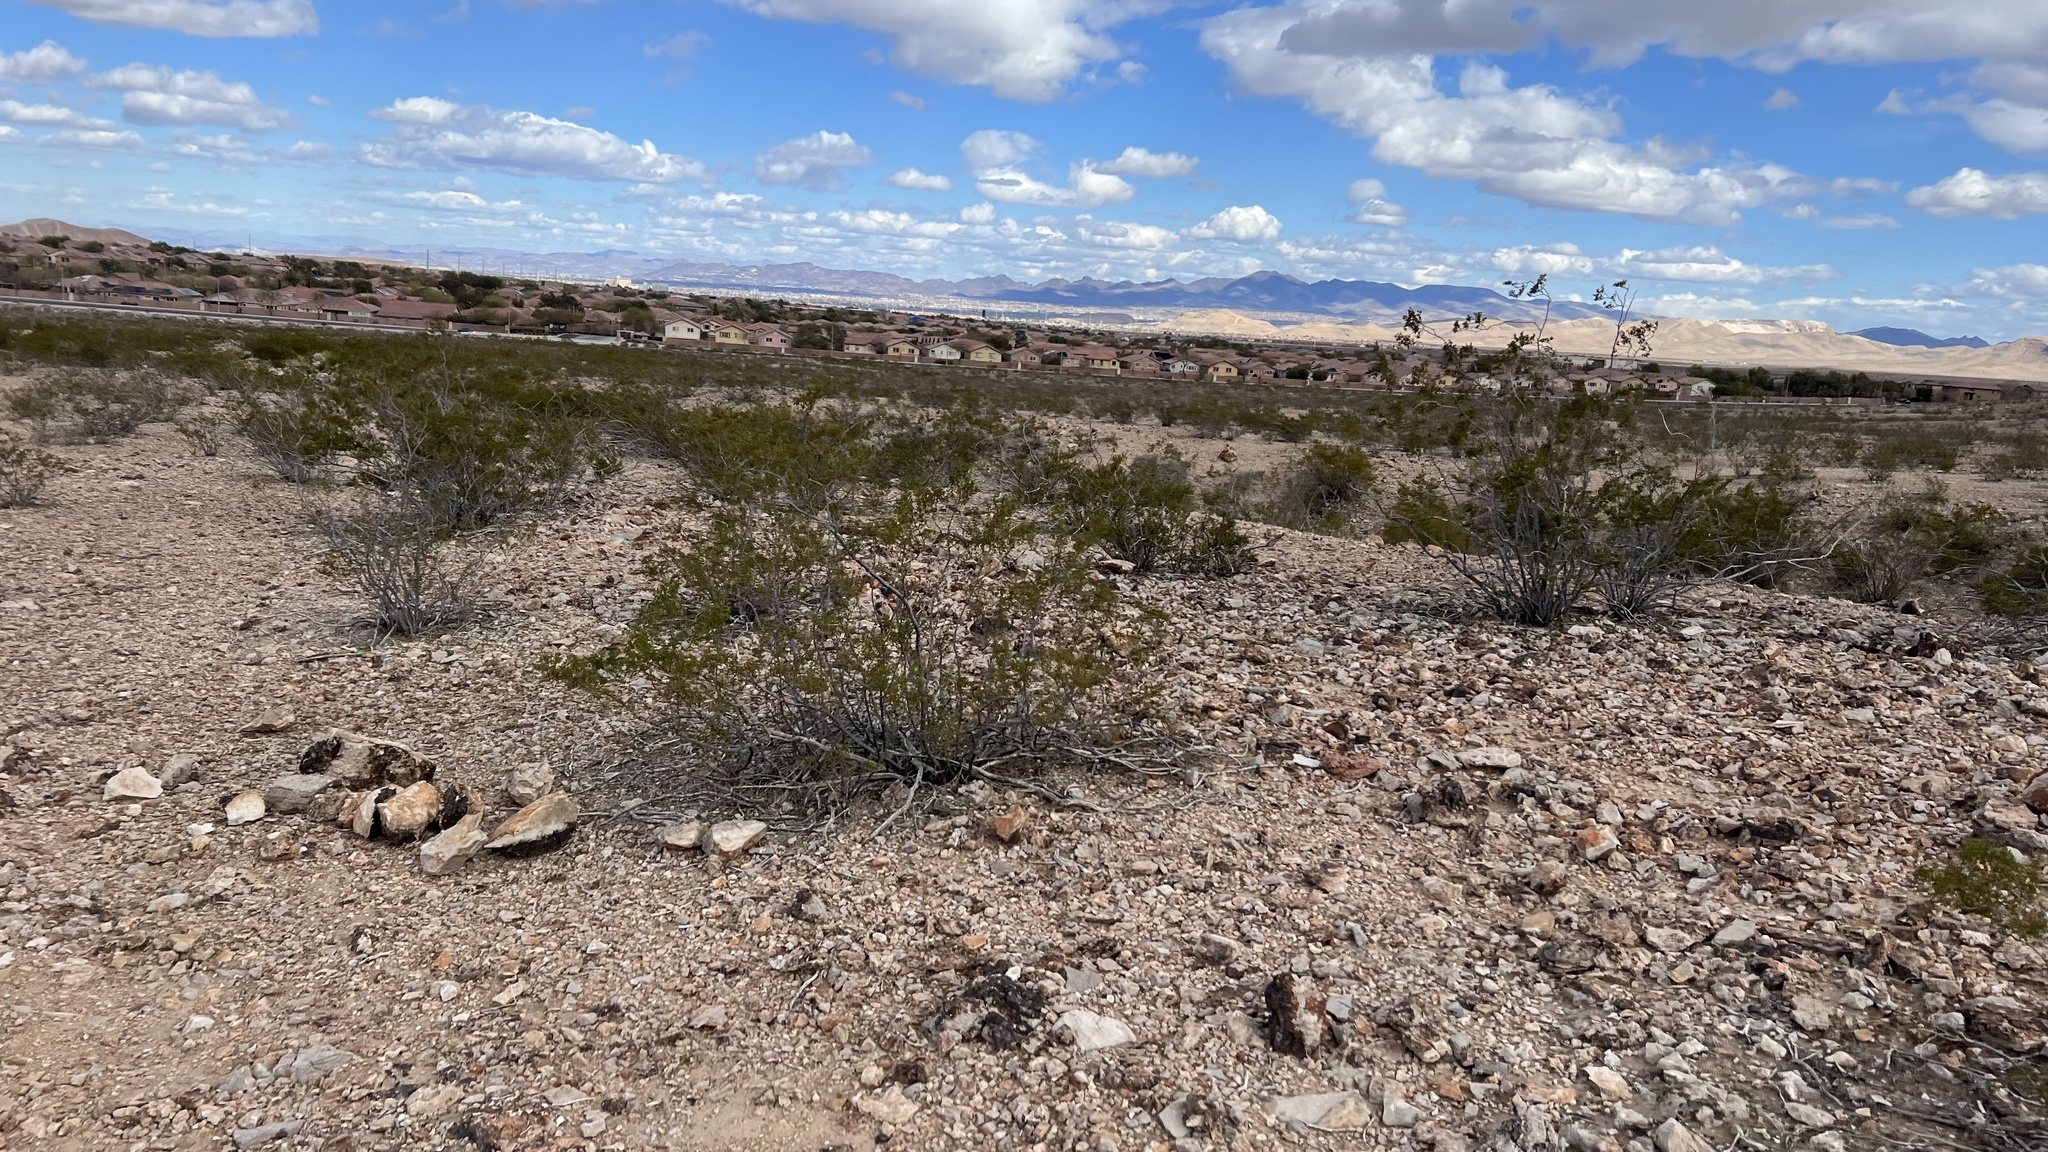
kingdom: Plantae
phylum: Tracheophyta
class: Magnoliopsida
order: Zygophyllales
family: Zygophyllaceae
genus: Larrea
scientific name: Larrea tridentata
